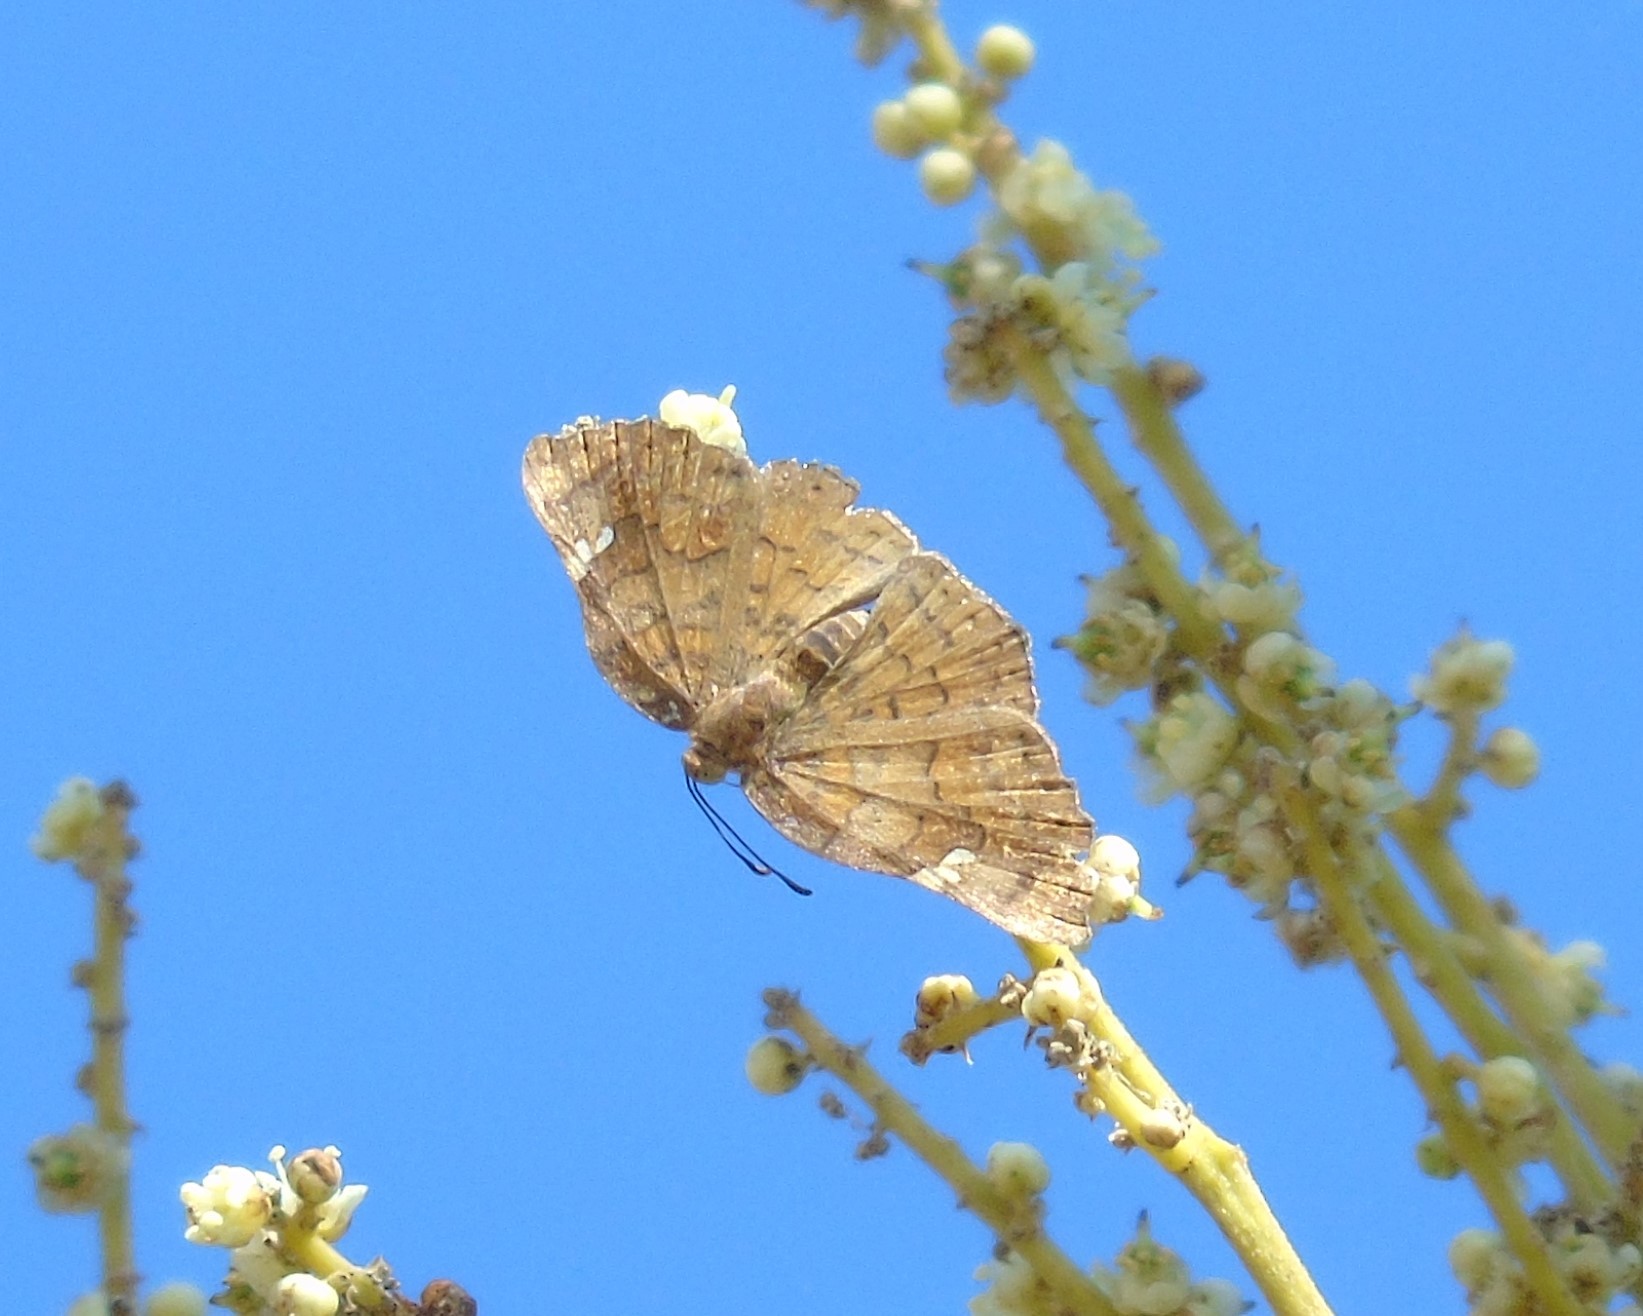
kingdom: Animalia
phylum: Arthropoda
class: Insecta
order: Lepidoptera
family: Riodinidae
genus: Curvie
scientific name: Curvie emesia
